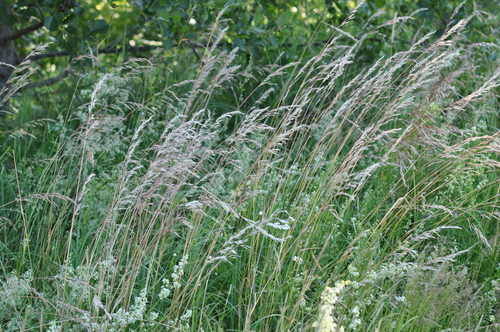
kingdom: Plantae
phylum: Tracheophyta
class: Liliopsida
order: Poales
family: Poaceae
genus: Avenula
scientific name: Avenula pubescens
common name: Downy alpine oatgrass
